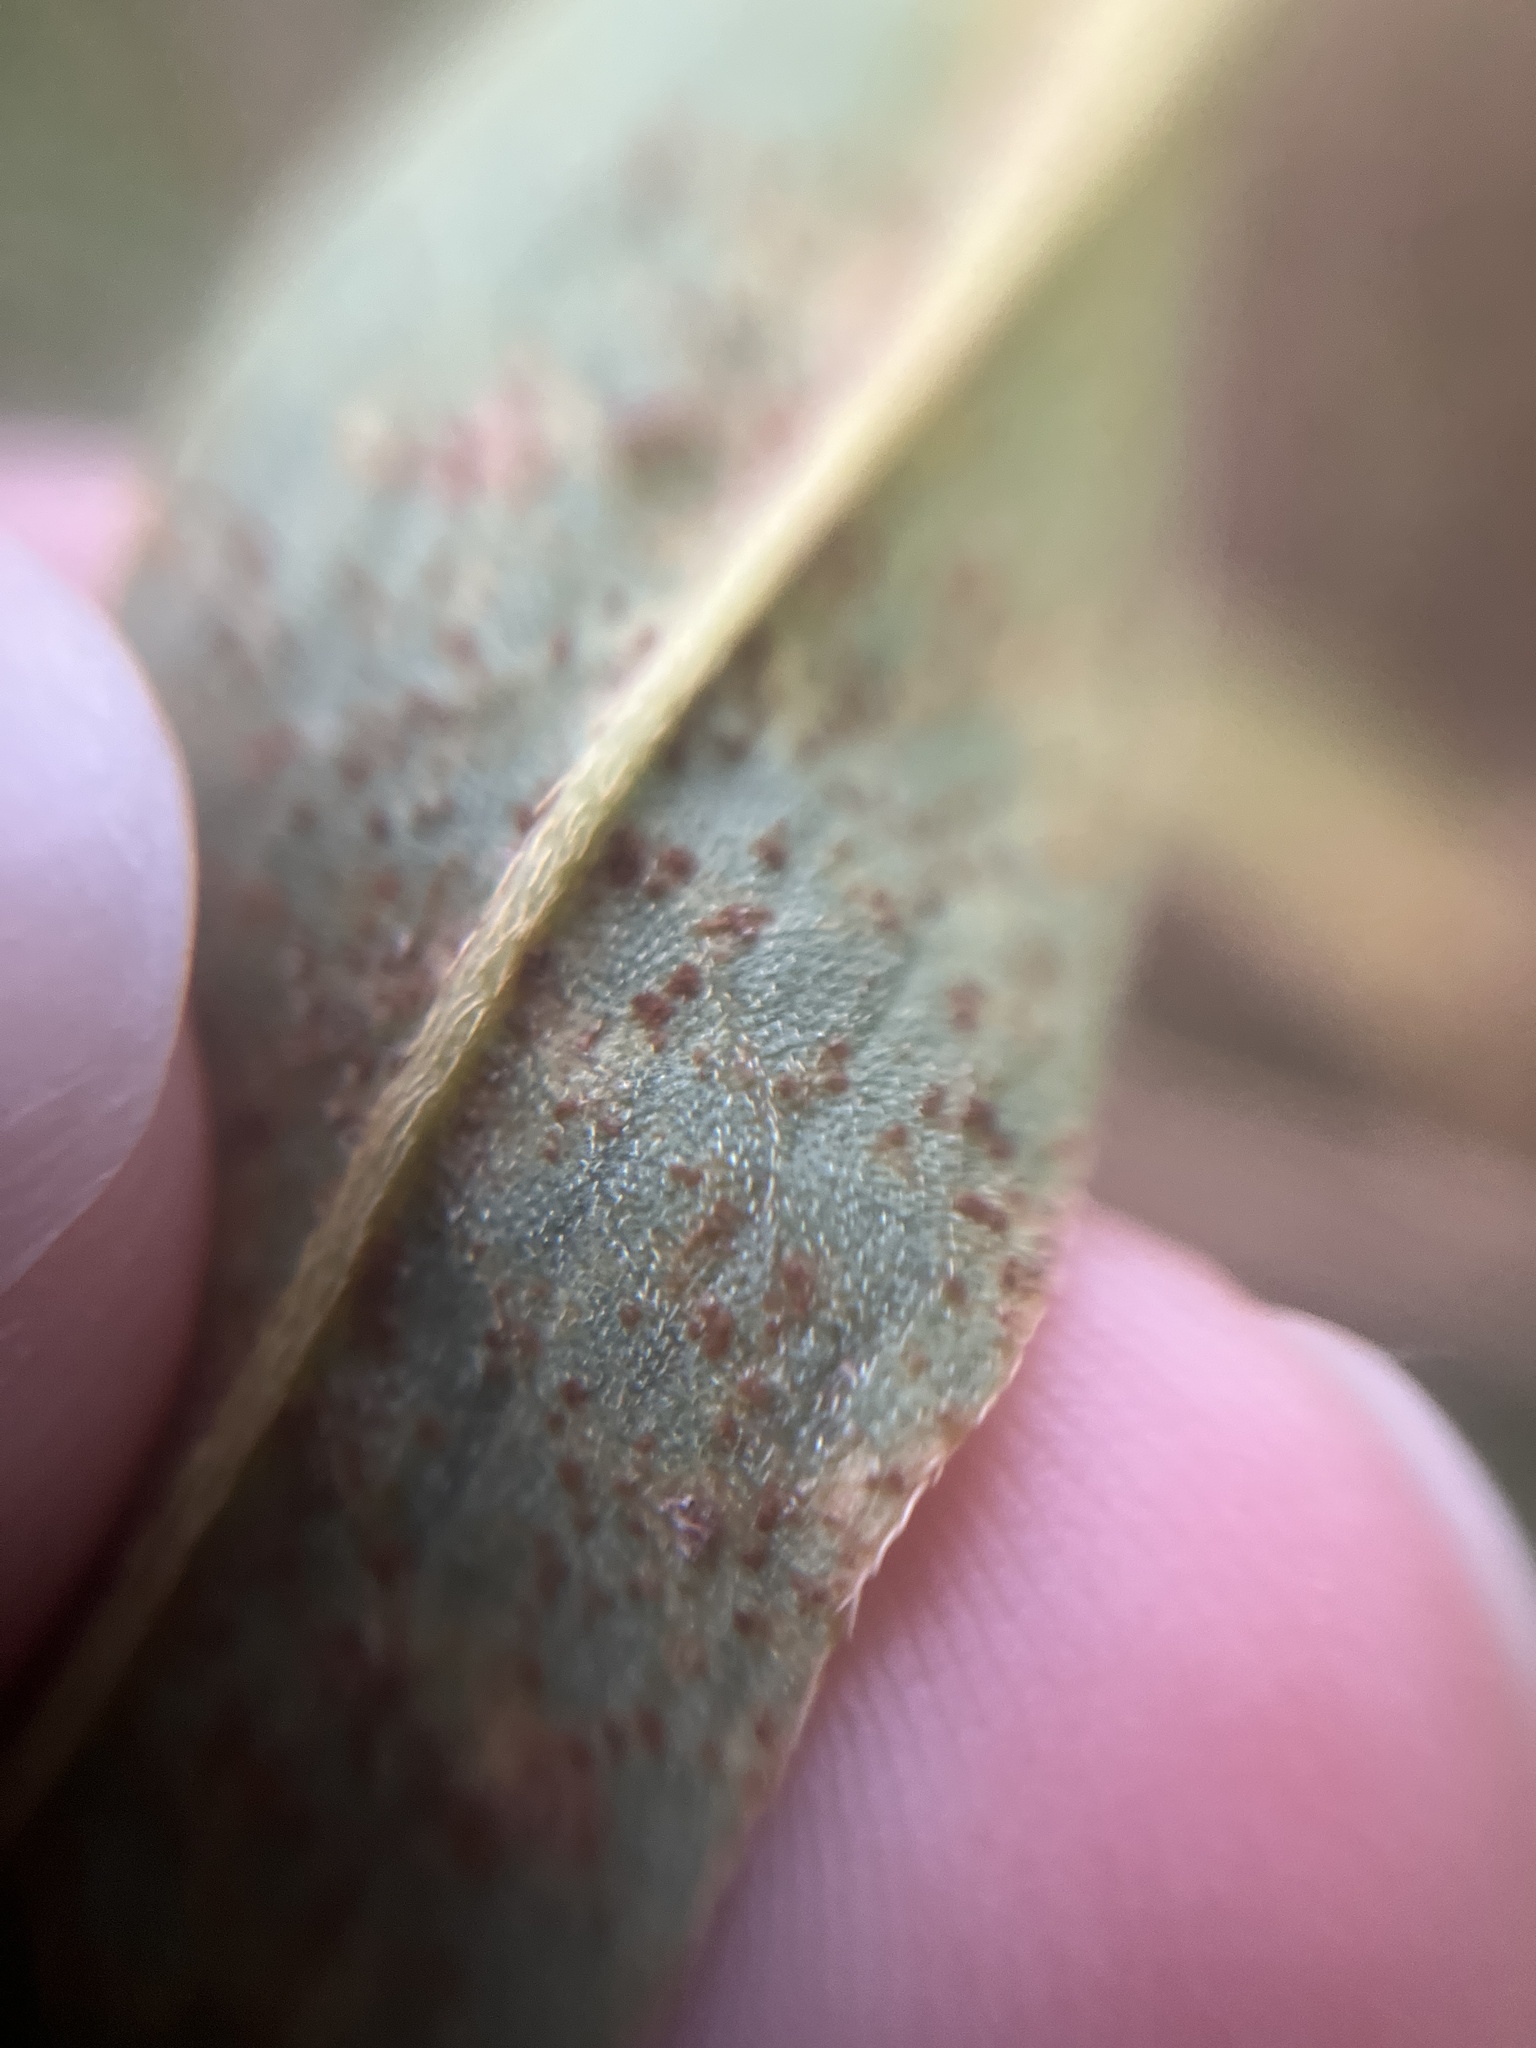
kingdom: Fungi
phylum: Basidiomycota
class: Pucciniomycetes
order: Pucciniales
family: Pucciniaceae
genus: Puccinia
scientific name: Puccinia polygoni-amphibii
